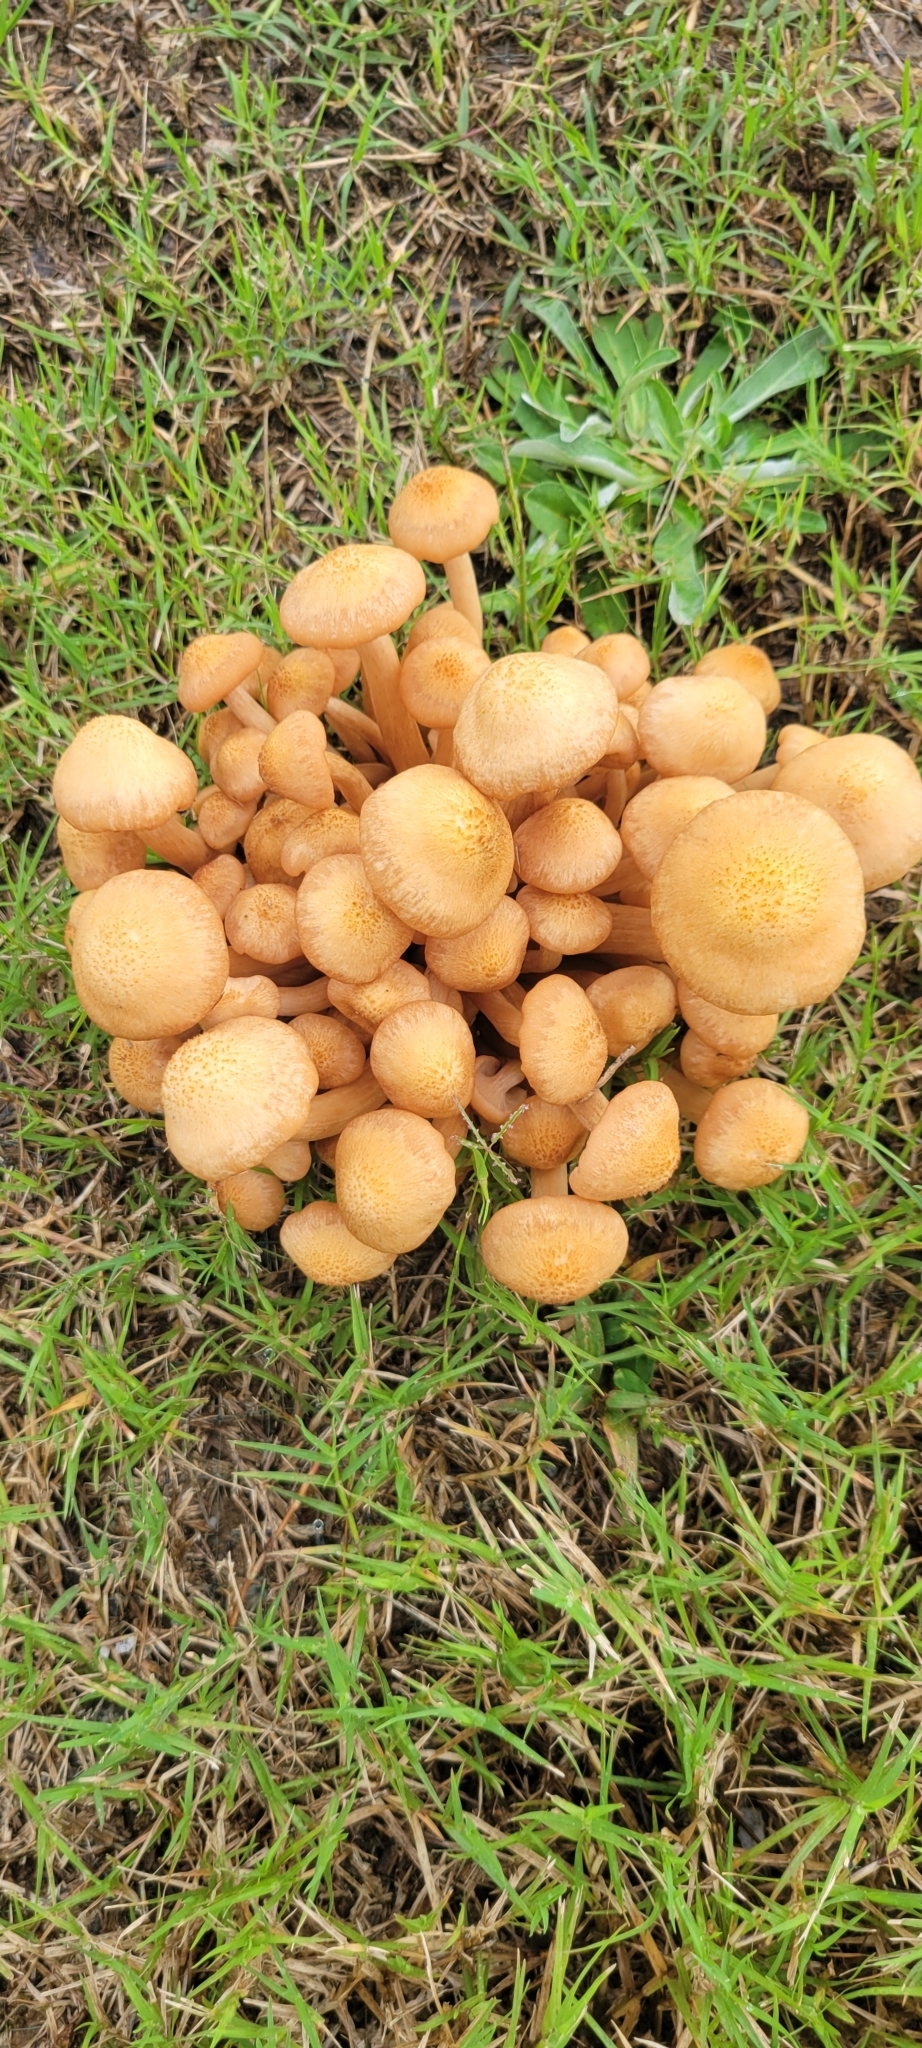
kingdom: Fungi
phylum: Basidiomycota
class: Agaricomycetes
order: Agaricales
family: Physalacriaceae
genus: Desarmillaria
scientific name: Desarmillaria caespitosa
